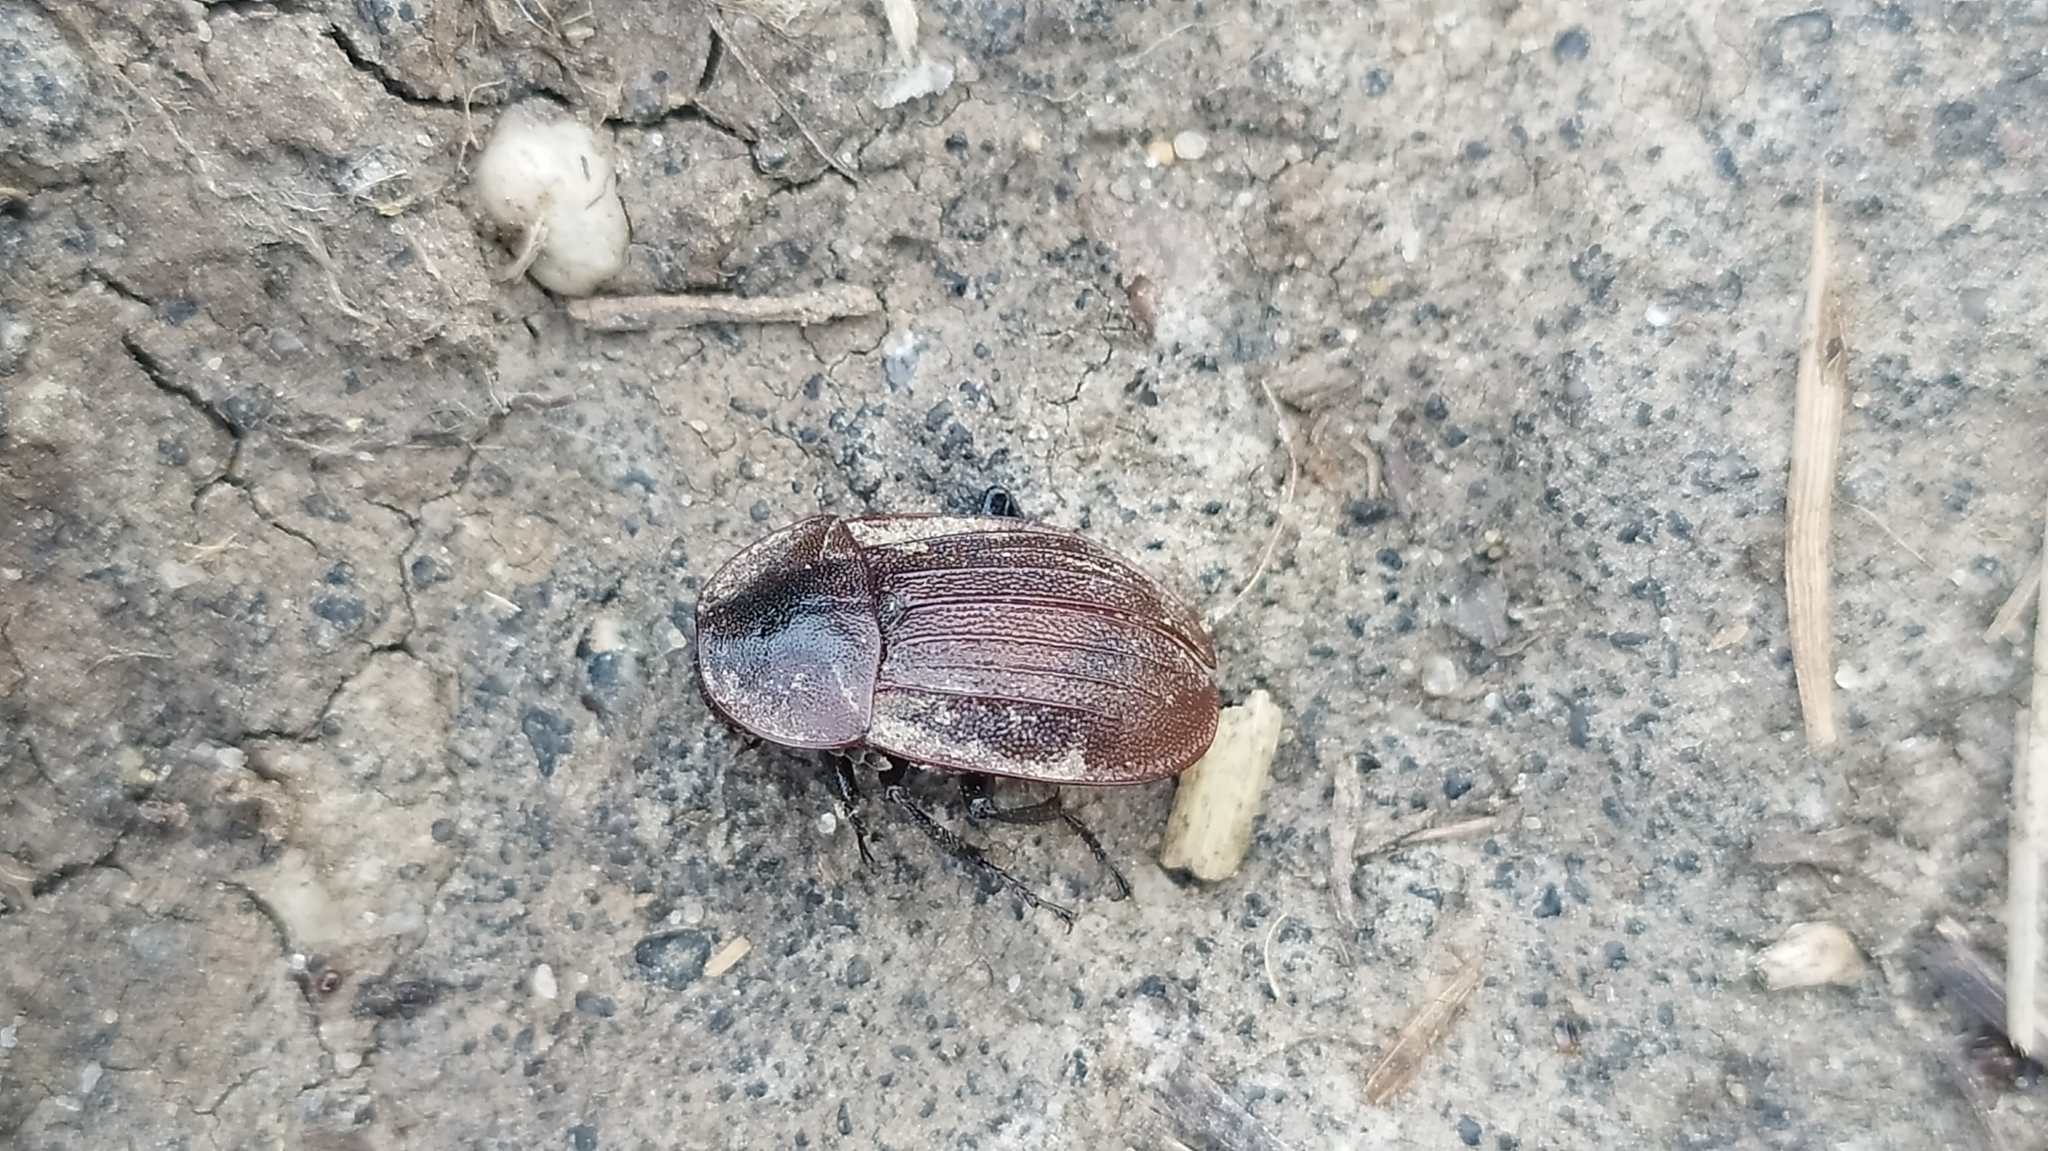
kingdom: Animalia
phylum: Arthropoda
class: Insecta
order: Coleoptera
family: Staphylinidae
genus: Silpha
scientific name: Silpha atrata
